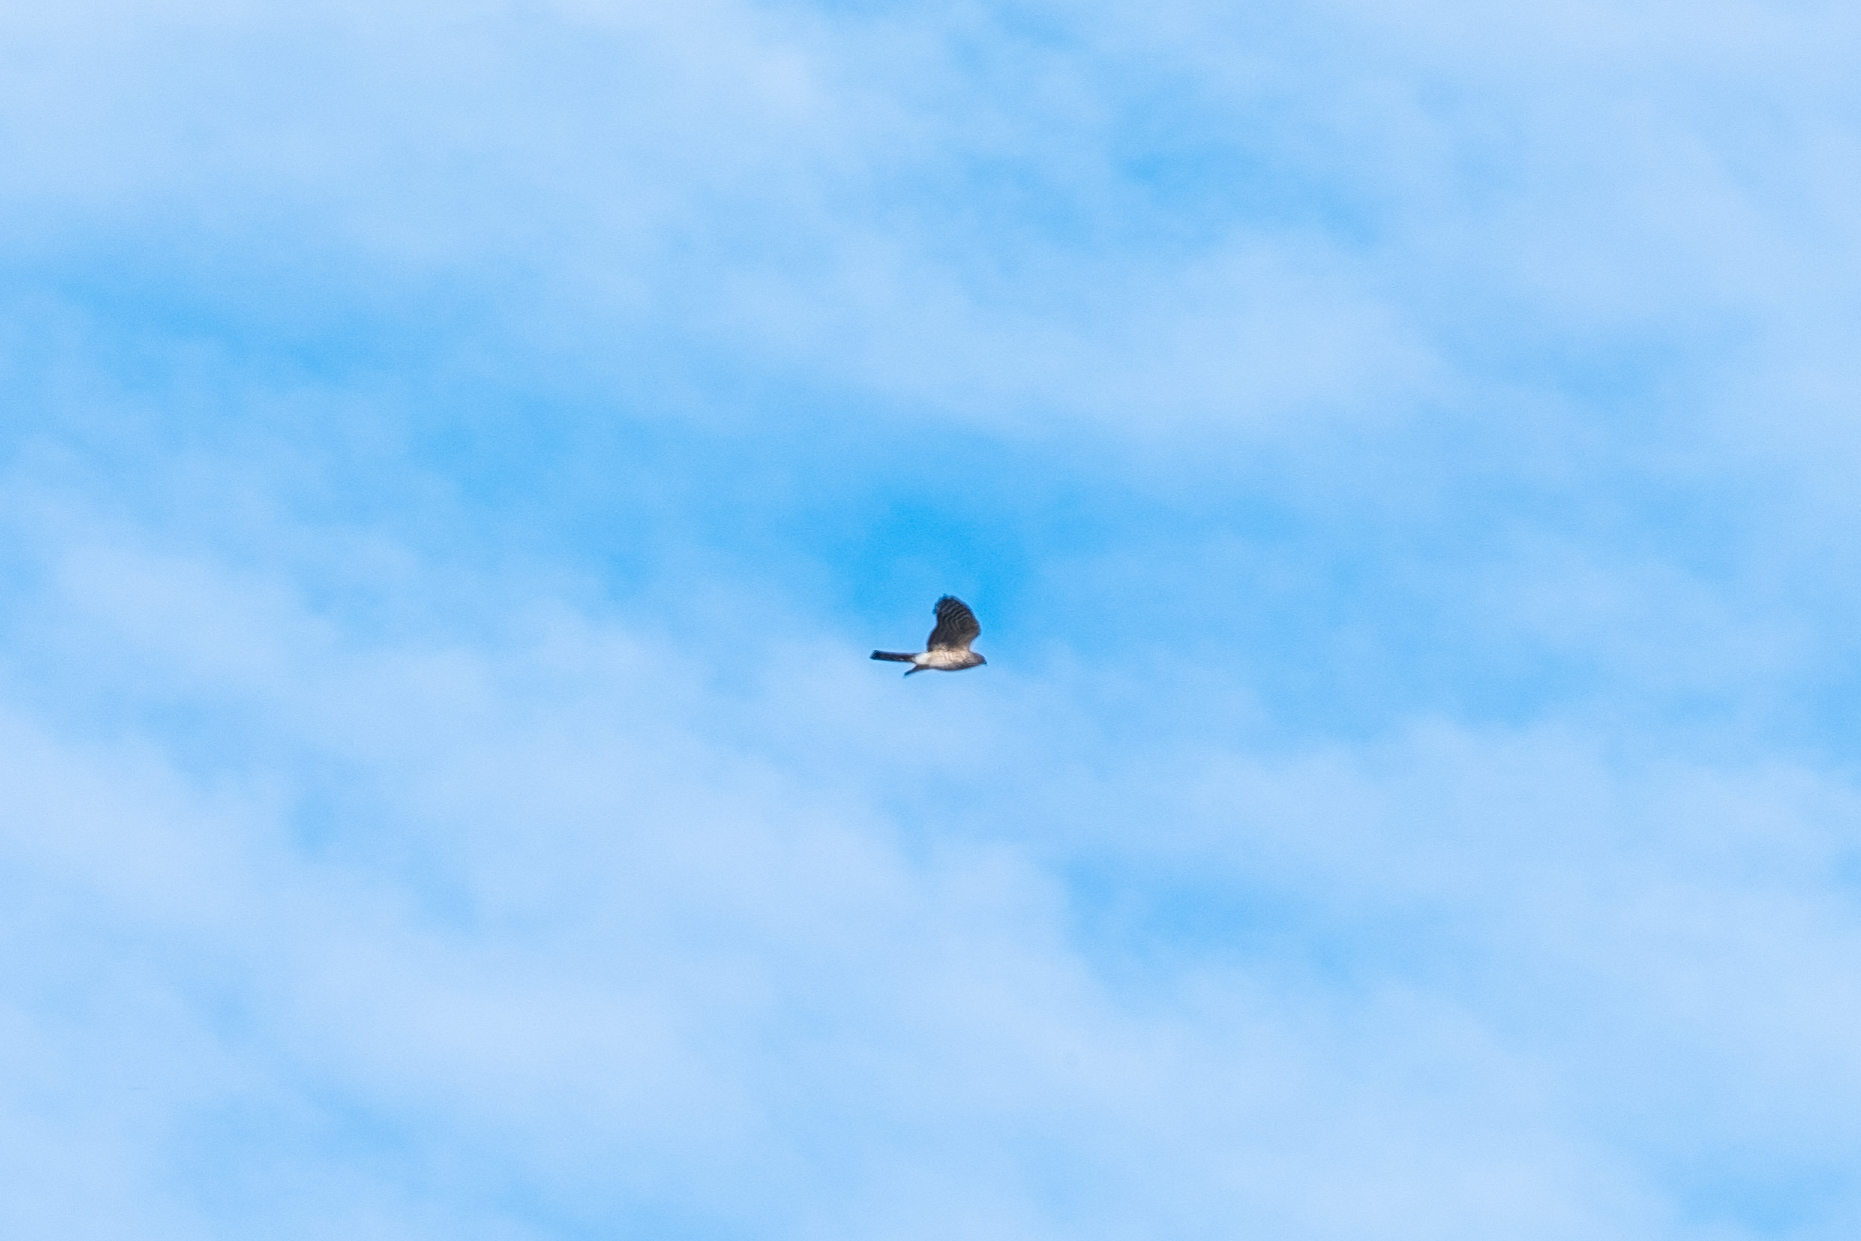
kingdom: Animalia
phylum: Chordata
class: Aves
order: Accipitriformes
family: Accipitridae
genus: Accipiter
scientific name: Accipiter
